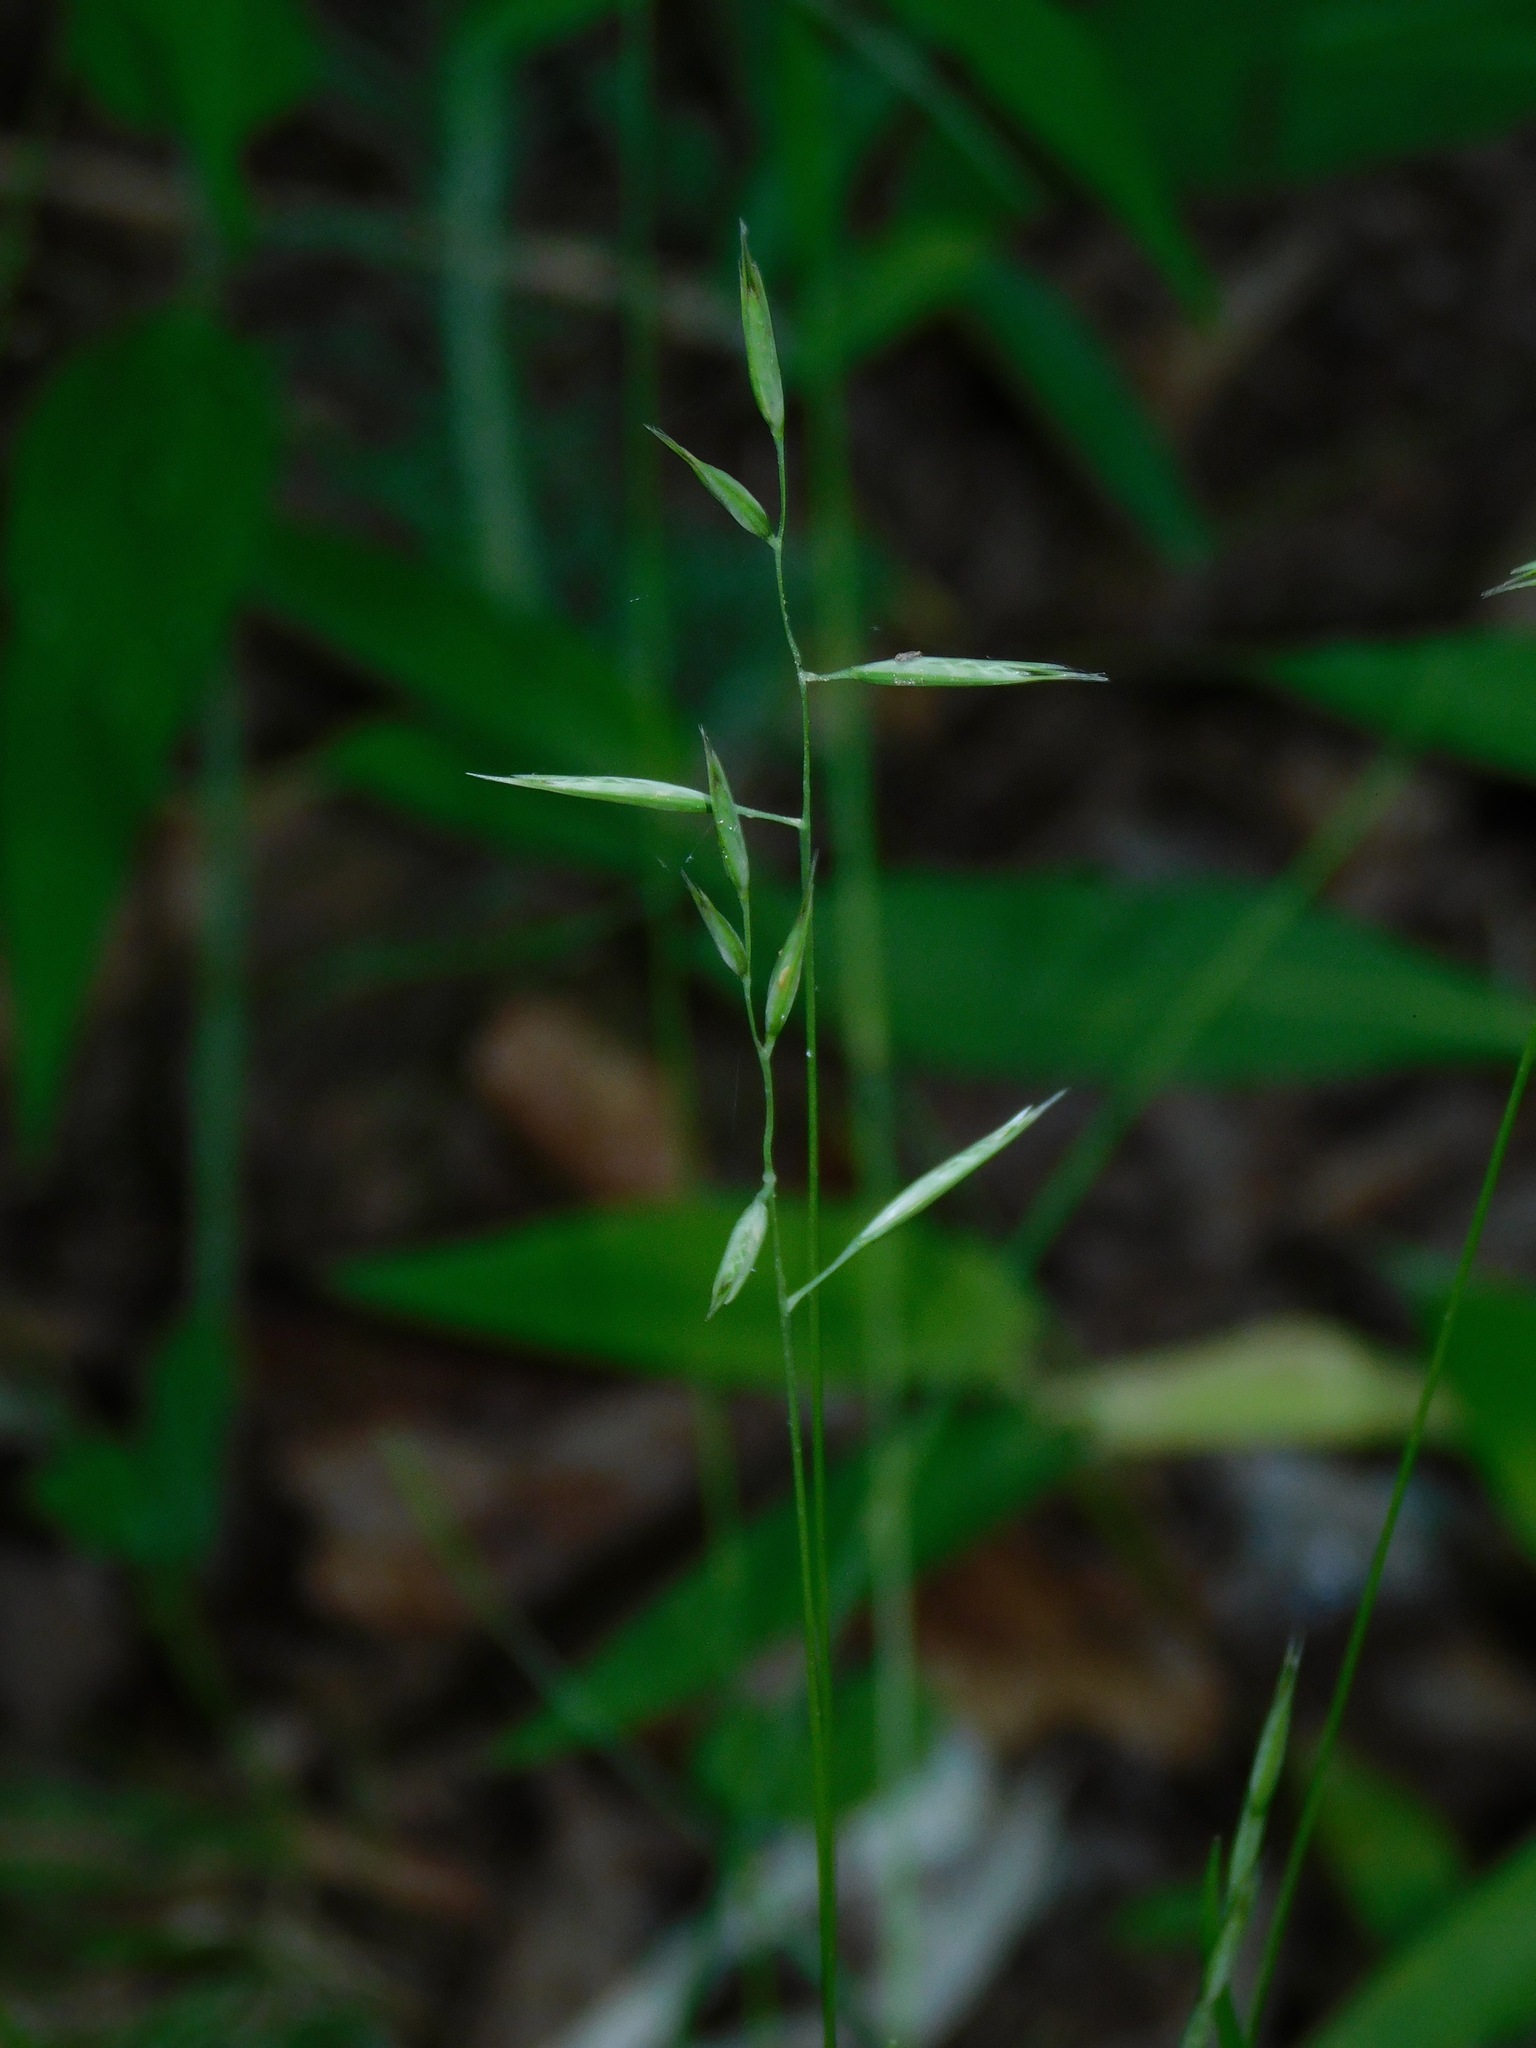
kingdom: Plantae
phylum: Tracheophyta
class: Liliopsida
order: Poales
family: Poaceae
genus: Danthonia
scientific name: Danthonia sericea
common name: Downy danthonia
